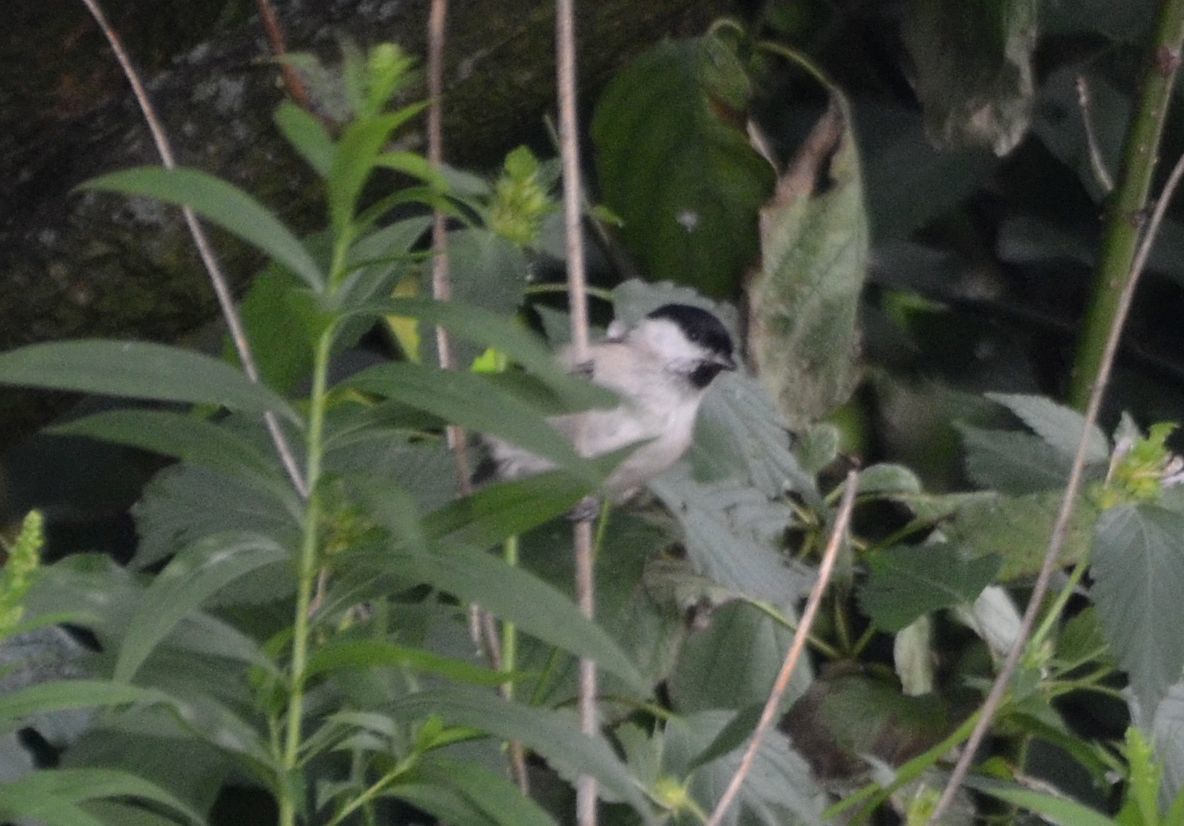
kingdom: Animalia
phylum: Chordata
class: Aves
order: Passeriformes
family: Paridae
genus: Poecile
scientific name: Poecile palustris
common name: Marsh tit
